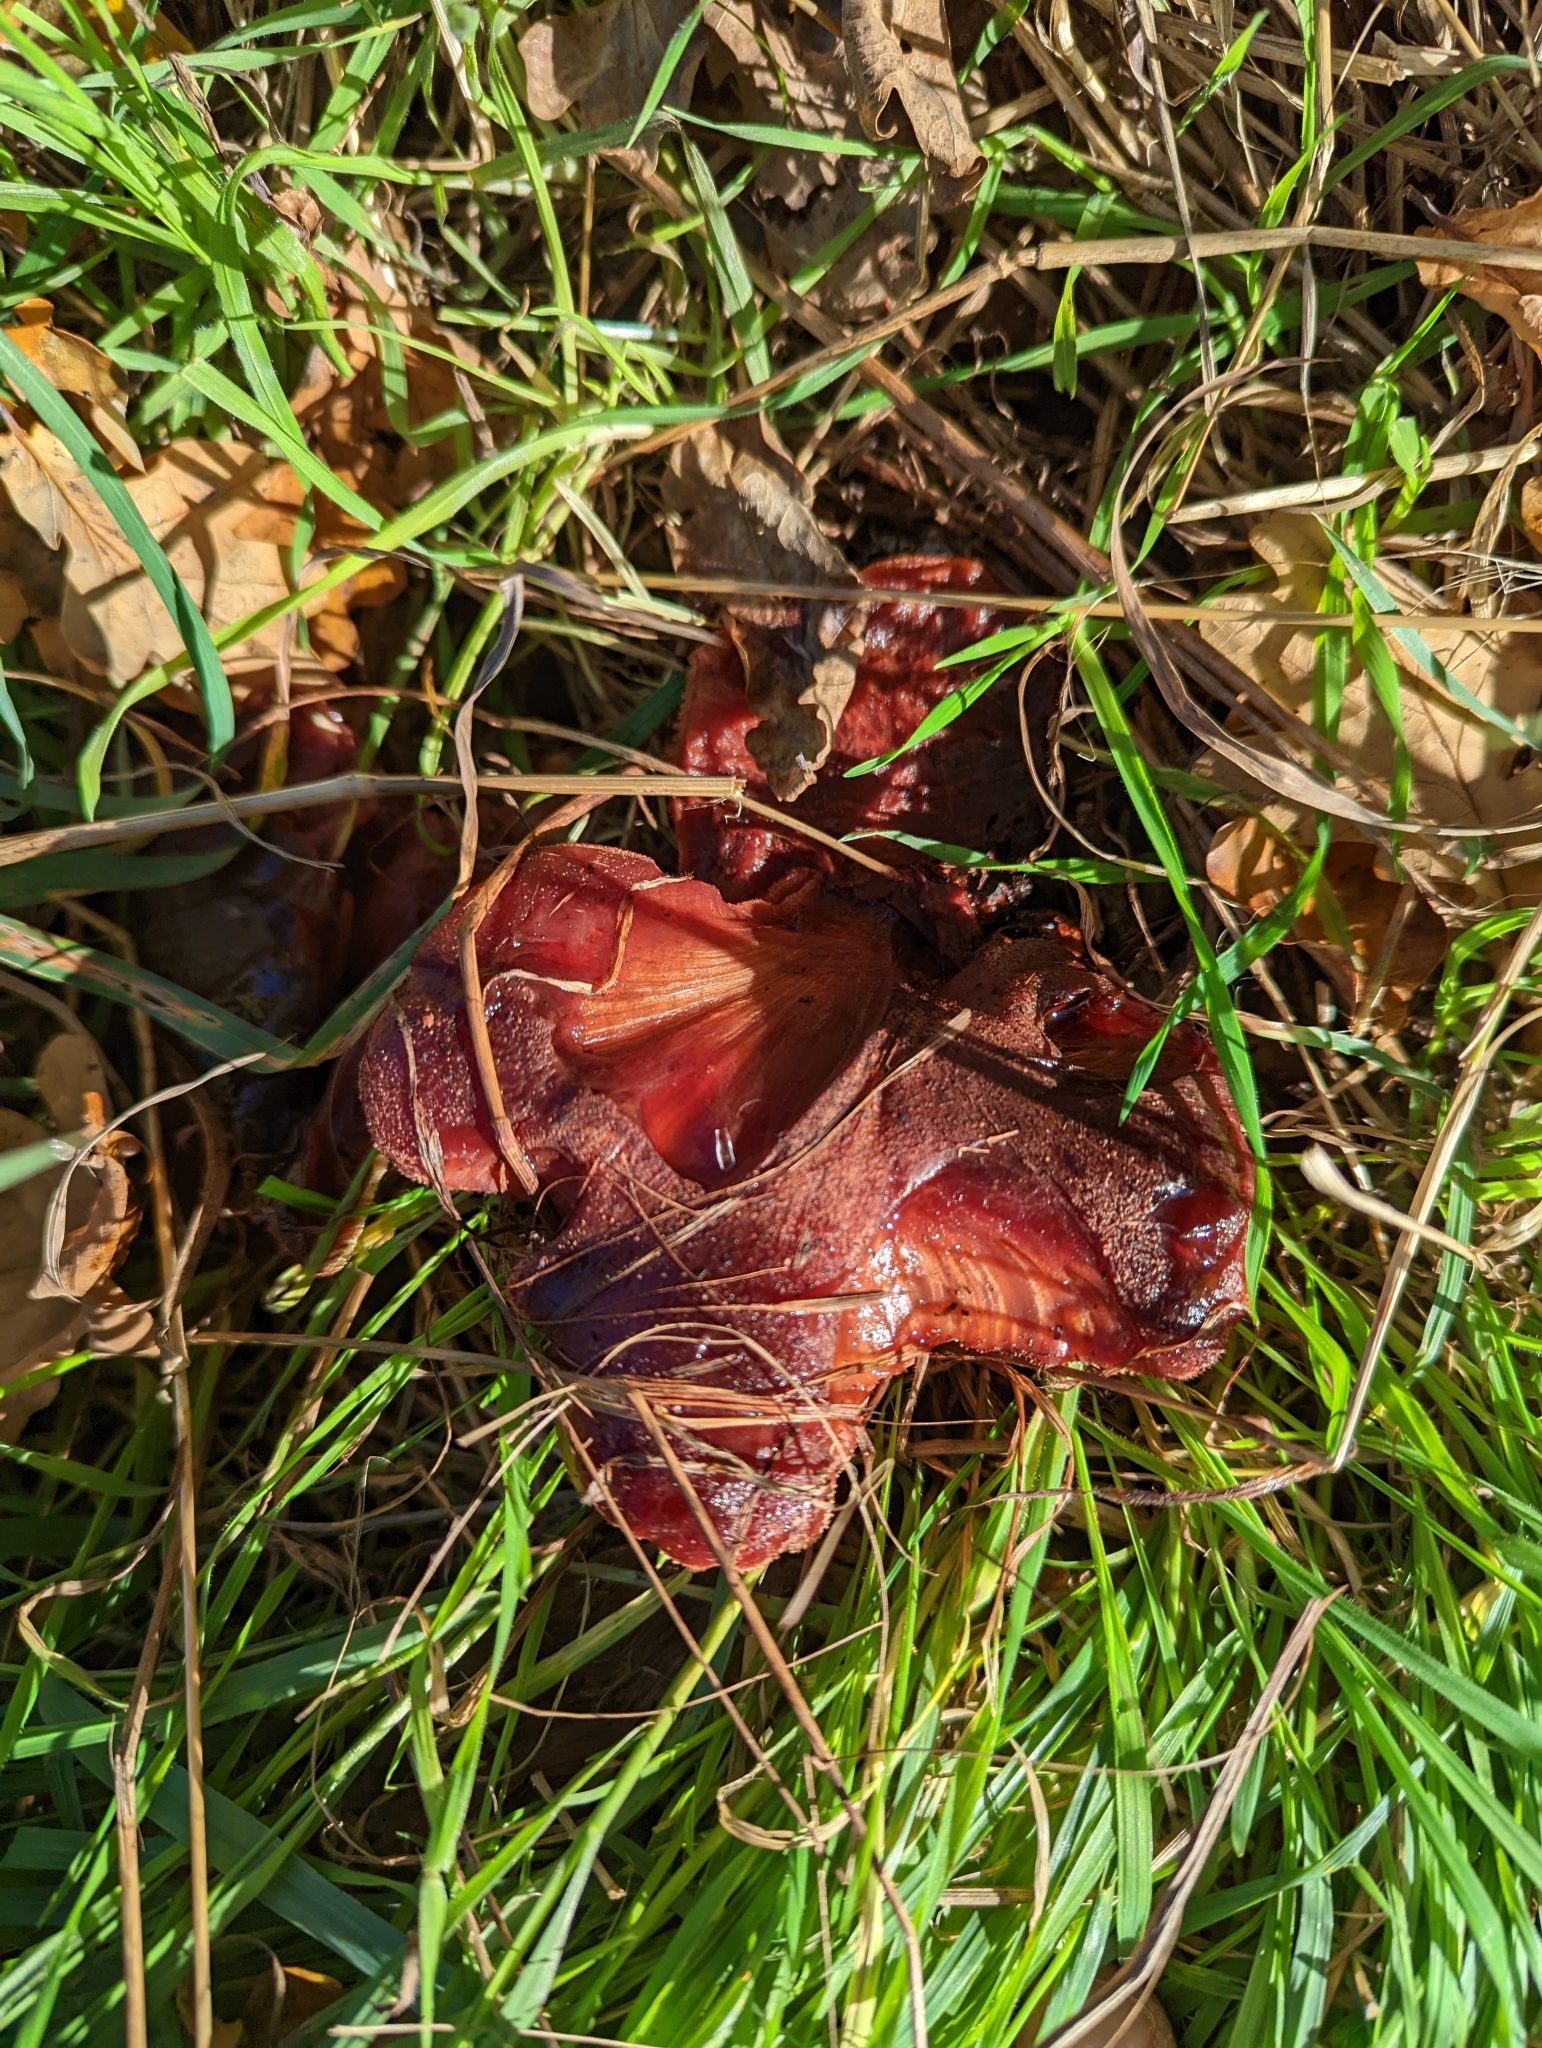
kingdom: Fungi
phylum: Basidiomycota
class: Agaricomycetes
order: Agaricales
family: Fistulinaceae
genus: Fistulina
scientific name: Fistulina hepatica
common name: Beef-steak fungus
